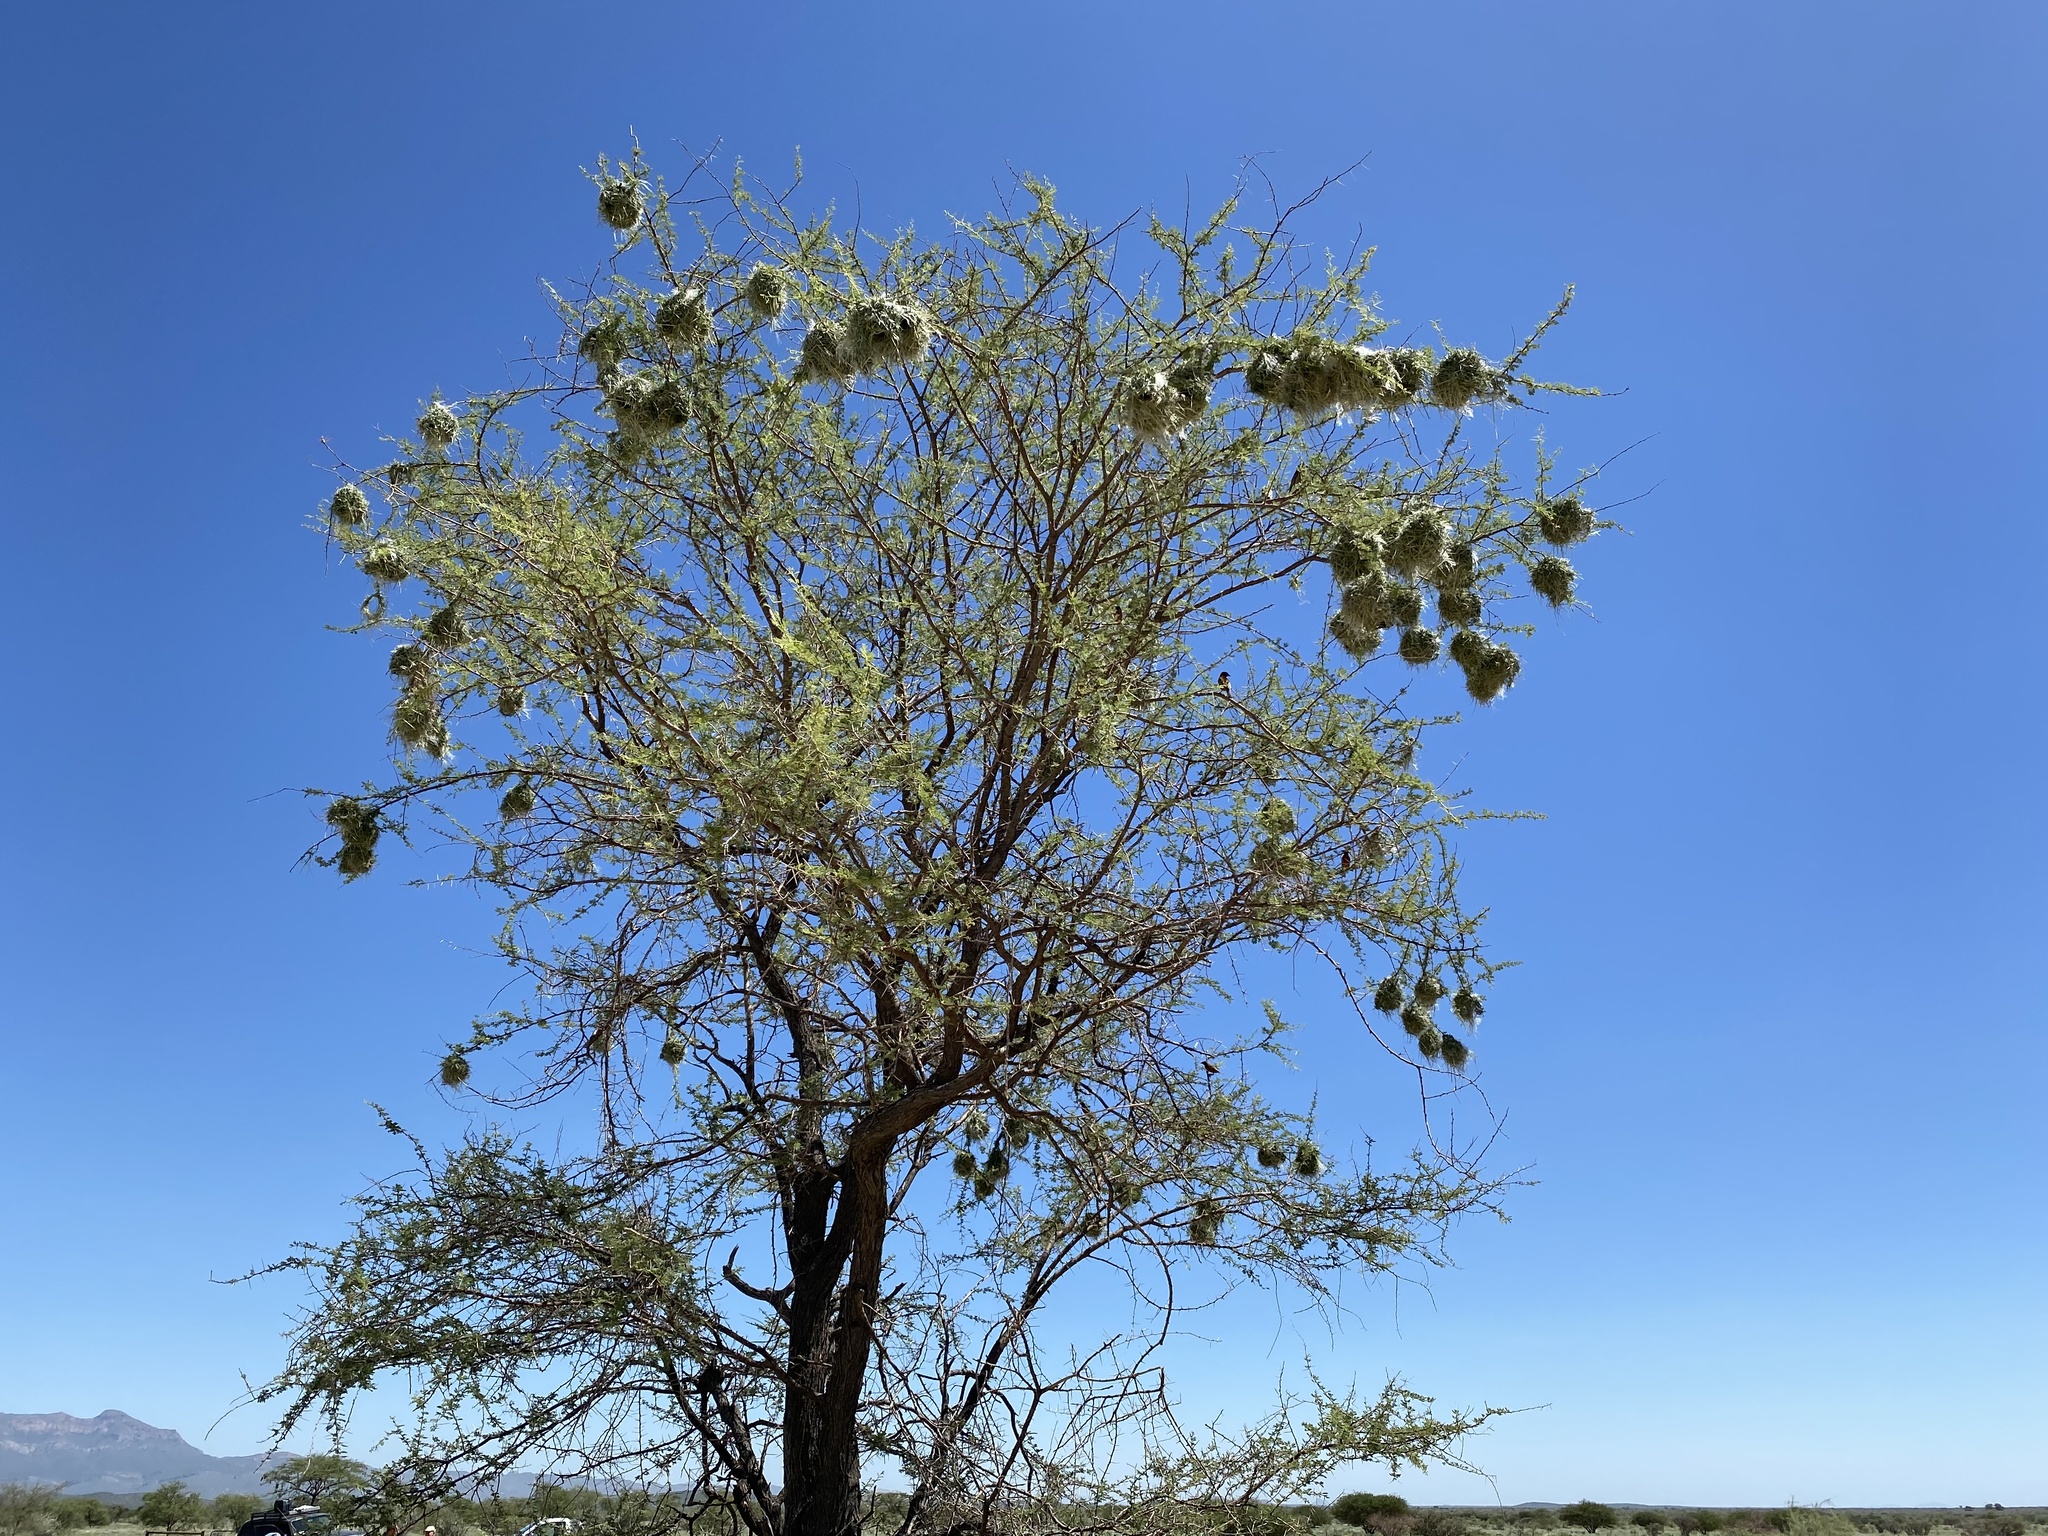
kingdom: Animalia
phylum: Chordata
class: Aves
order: Passeriformes
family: Ploceidae
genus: Ploceus
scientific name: Ploceus rubiginosus
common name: Chestnut weaver
